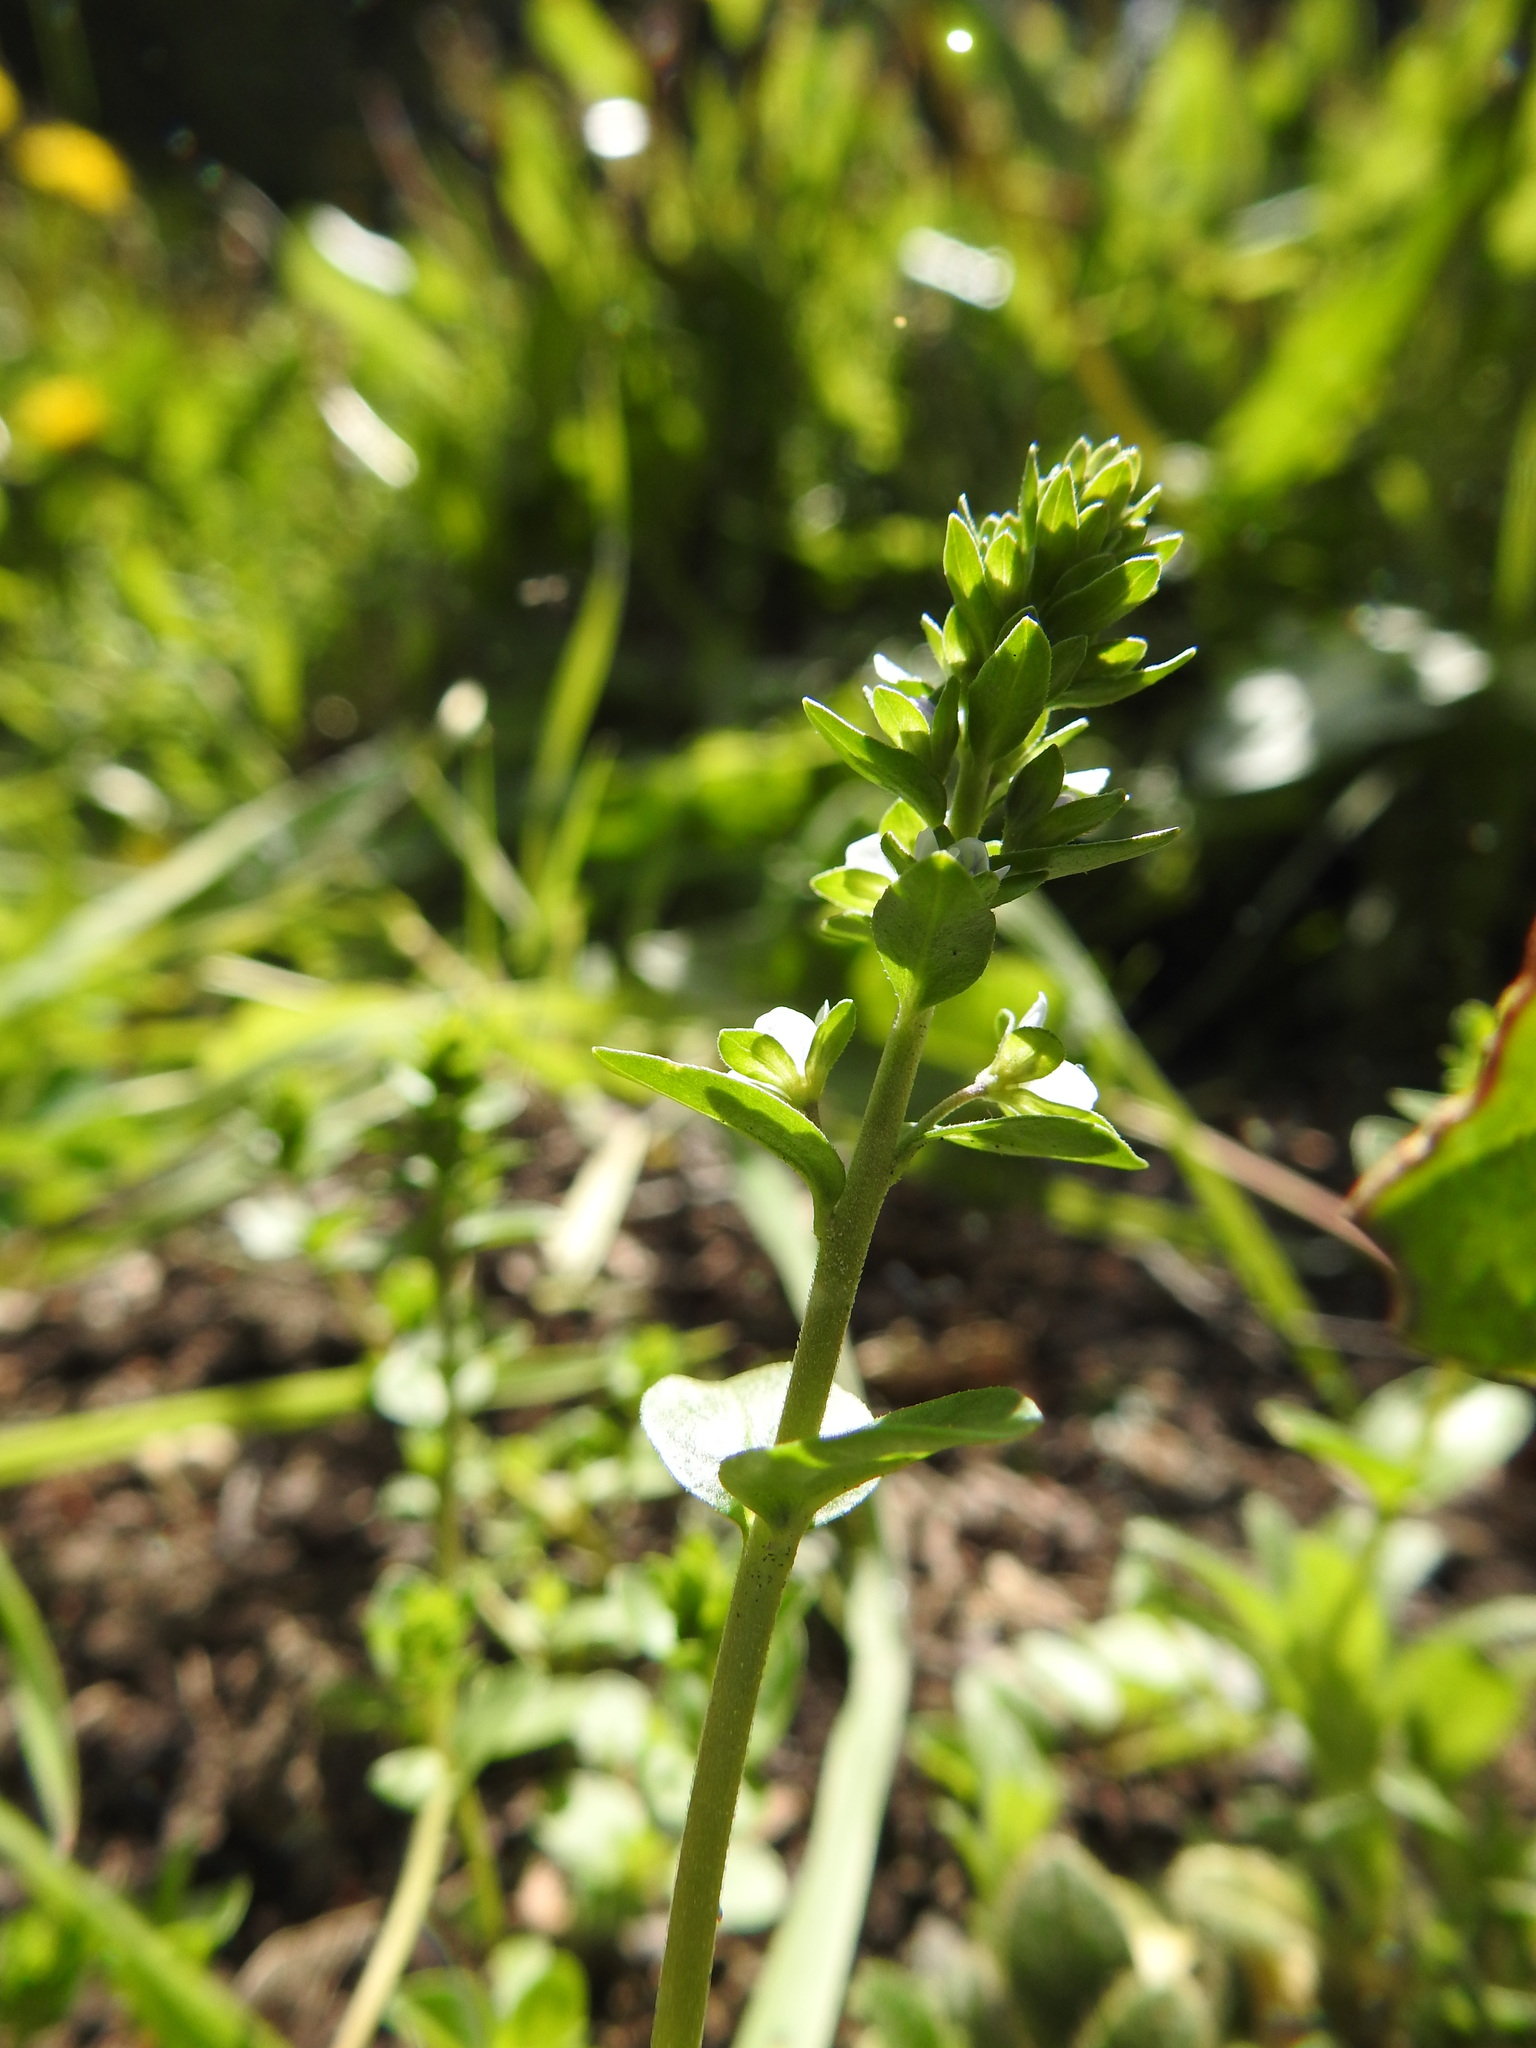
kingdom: Plantae
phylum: Tracheophyta
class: Magnoliopsida
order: Lamiales
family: Plantaginaceae
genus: Veronica
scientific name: Veronica serpyllifolia
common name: Thyme-leaved speedwell
